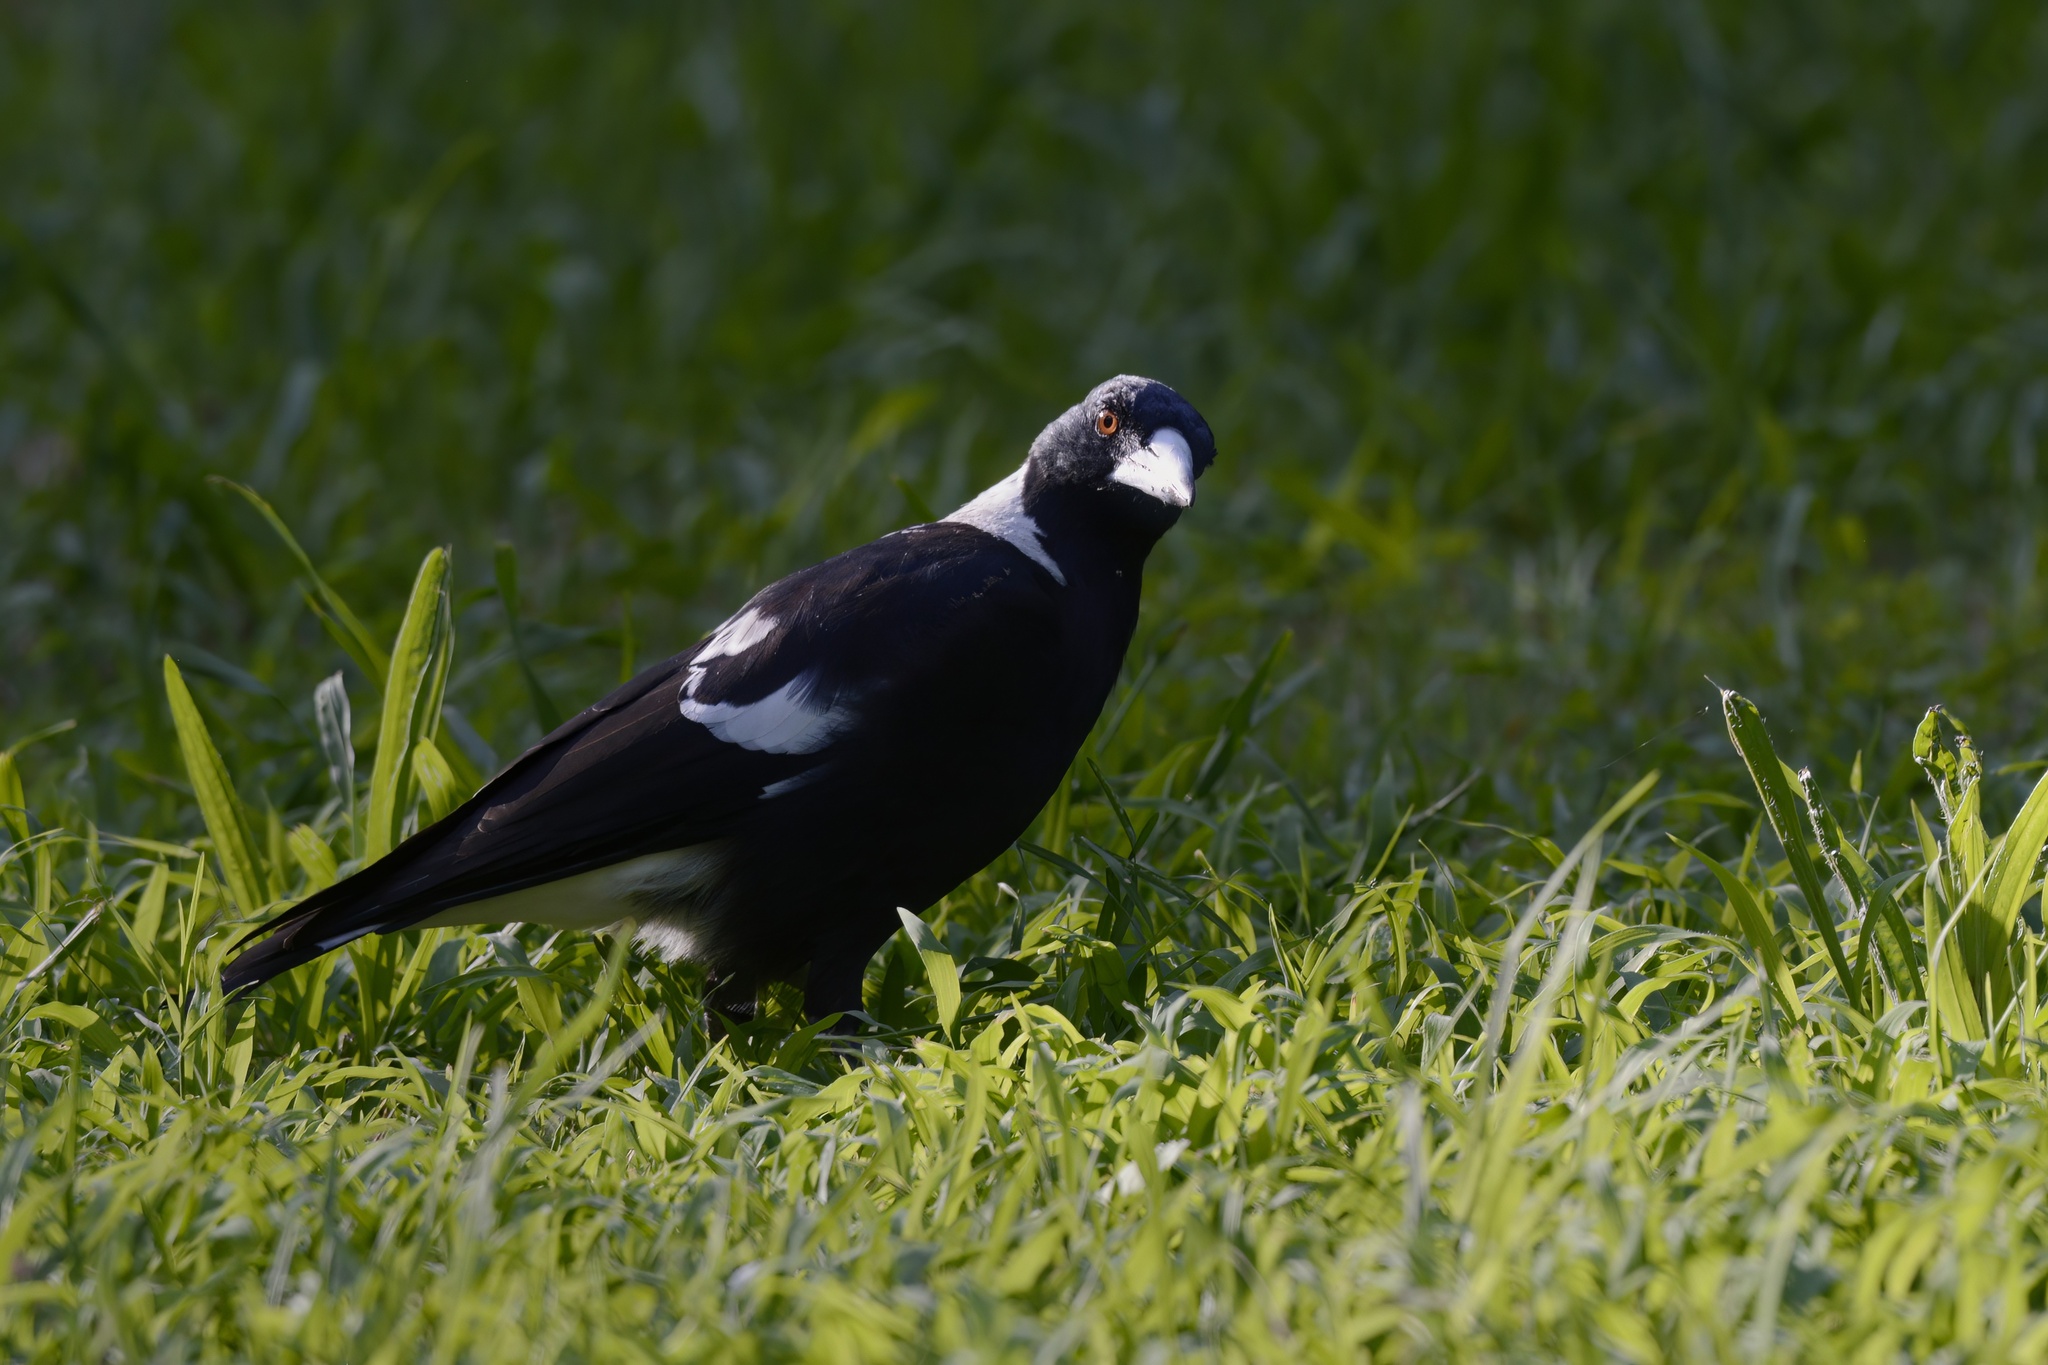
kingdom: Animalia
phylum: Chordata
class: Aves
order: Passeriformes
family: Cracticidae
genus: Gymnorhina
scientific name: Gymnorhina tibicen
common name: Australian magpie
